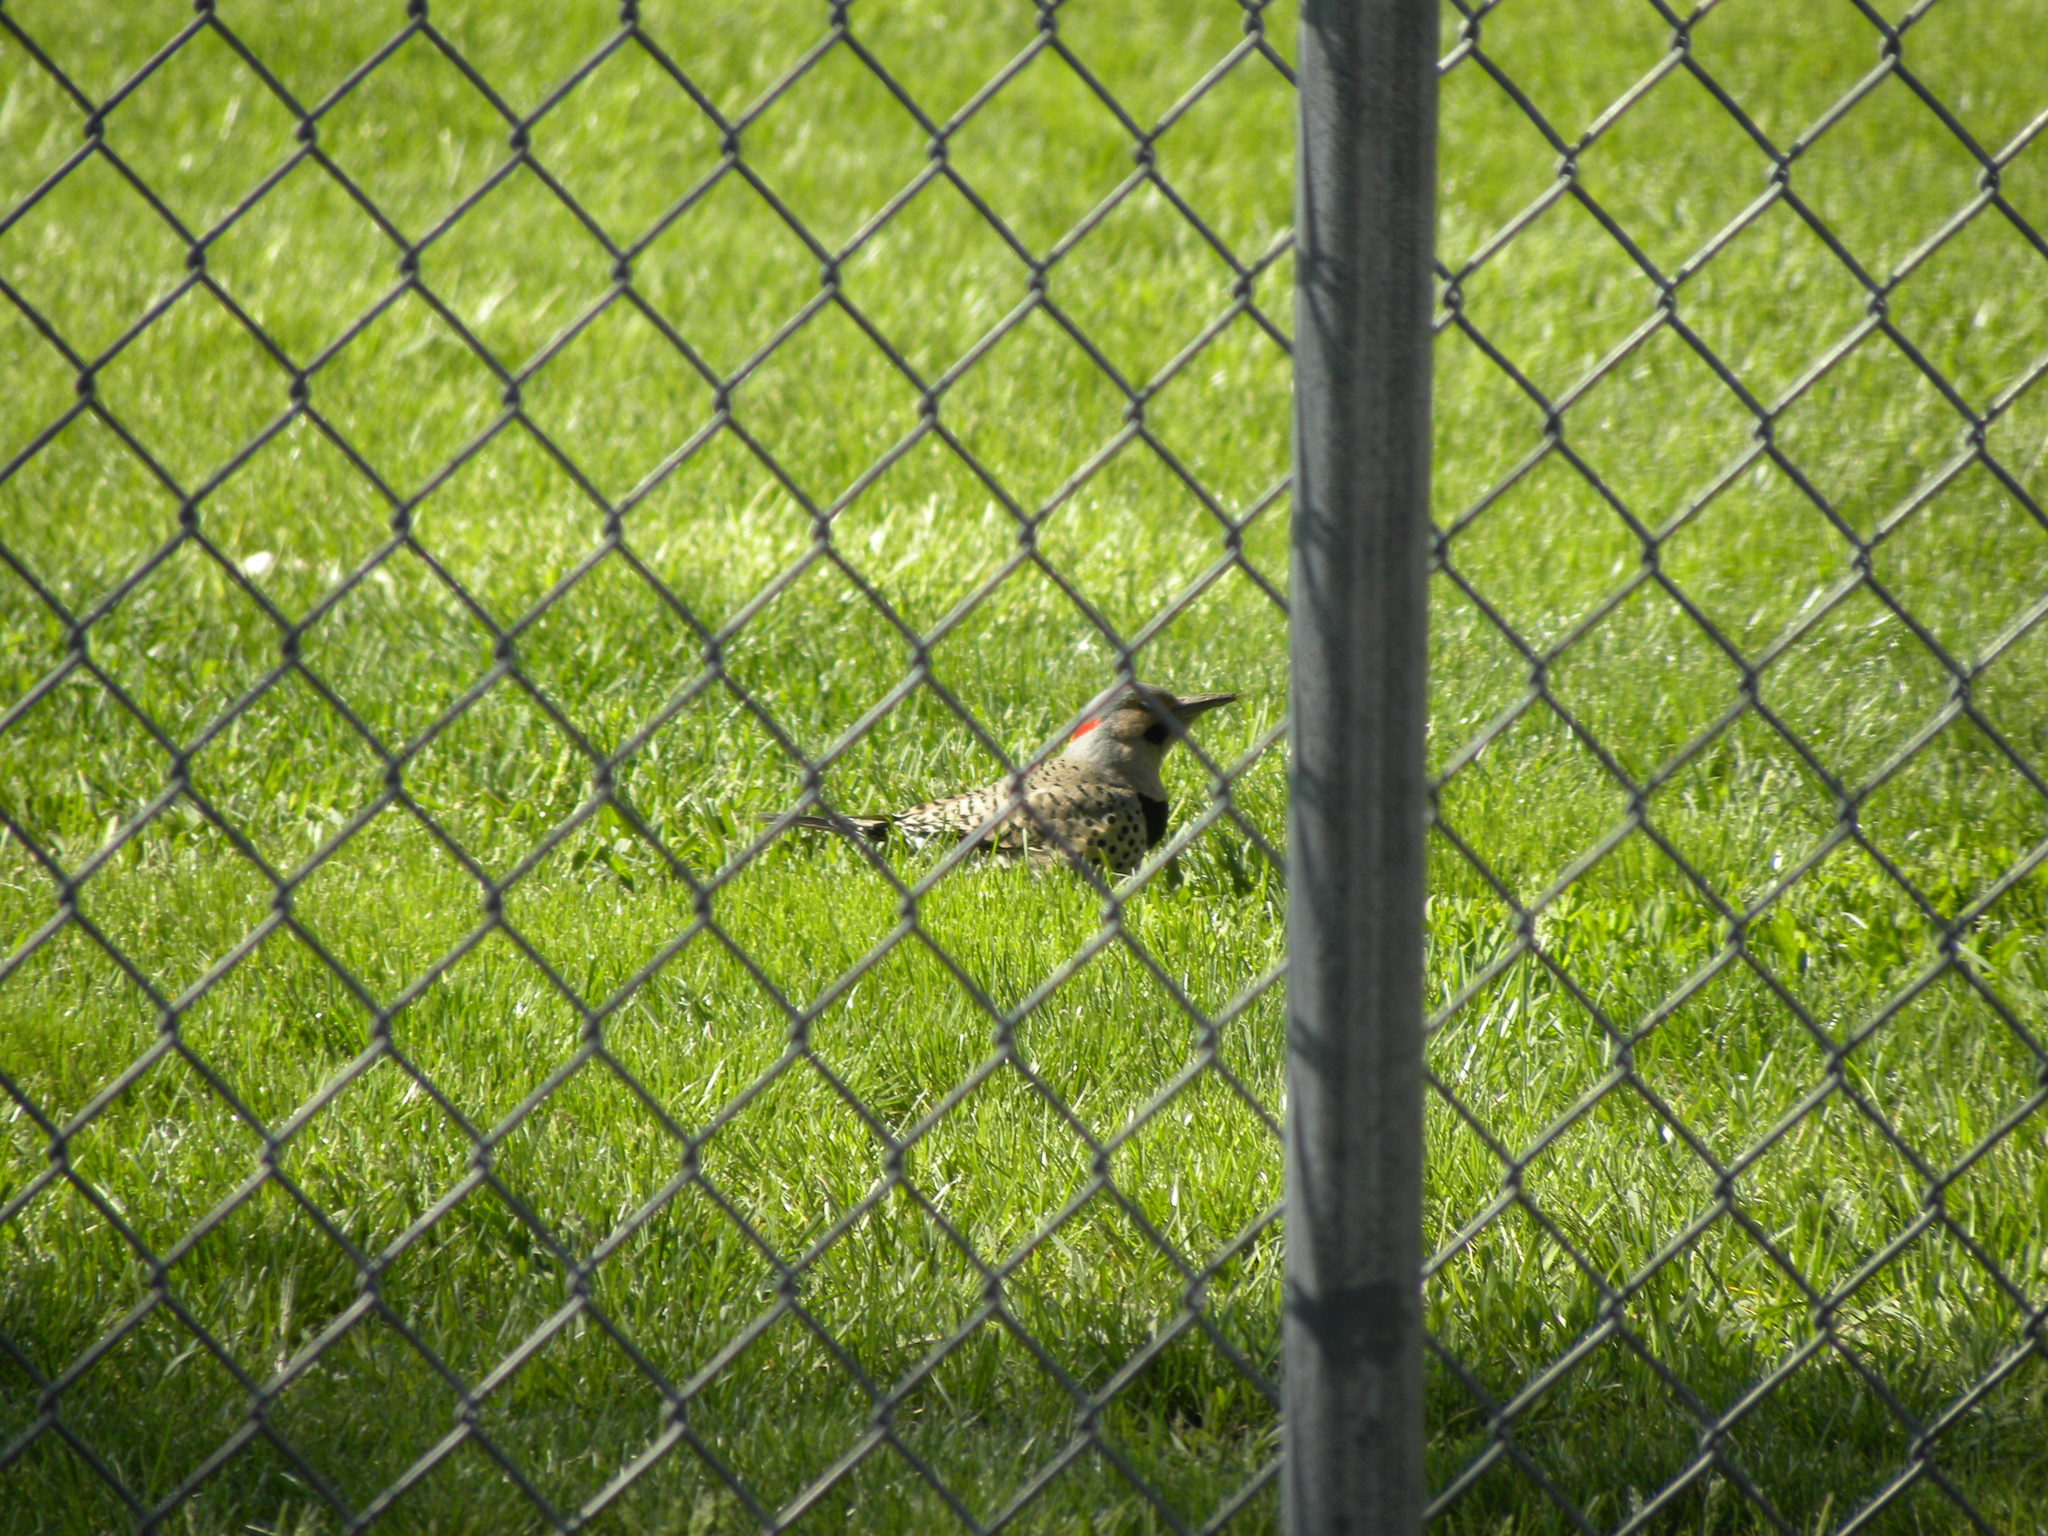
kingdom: Animalia
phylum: Chordata
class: Aves
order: Piciformes
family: Picidae
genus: Colaptes
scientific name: Colaptes auratus
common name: Northern flicker
